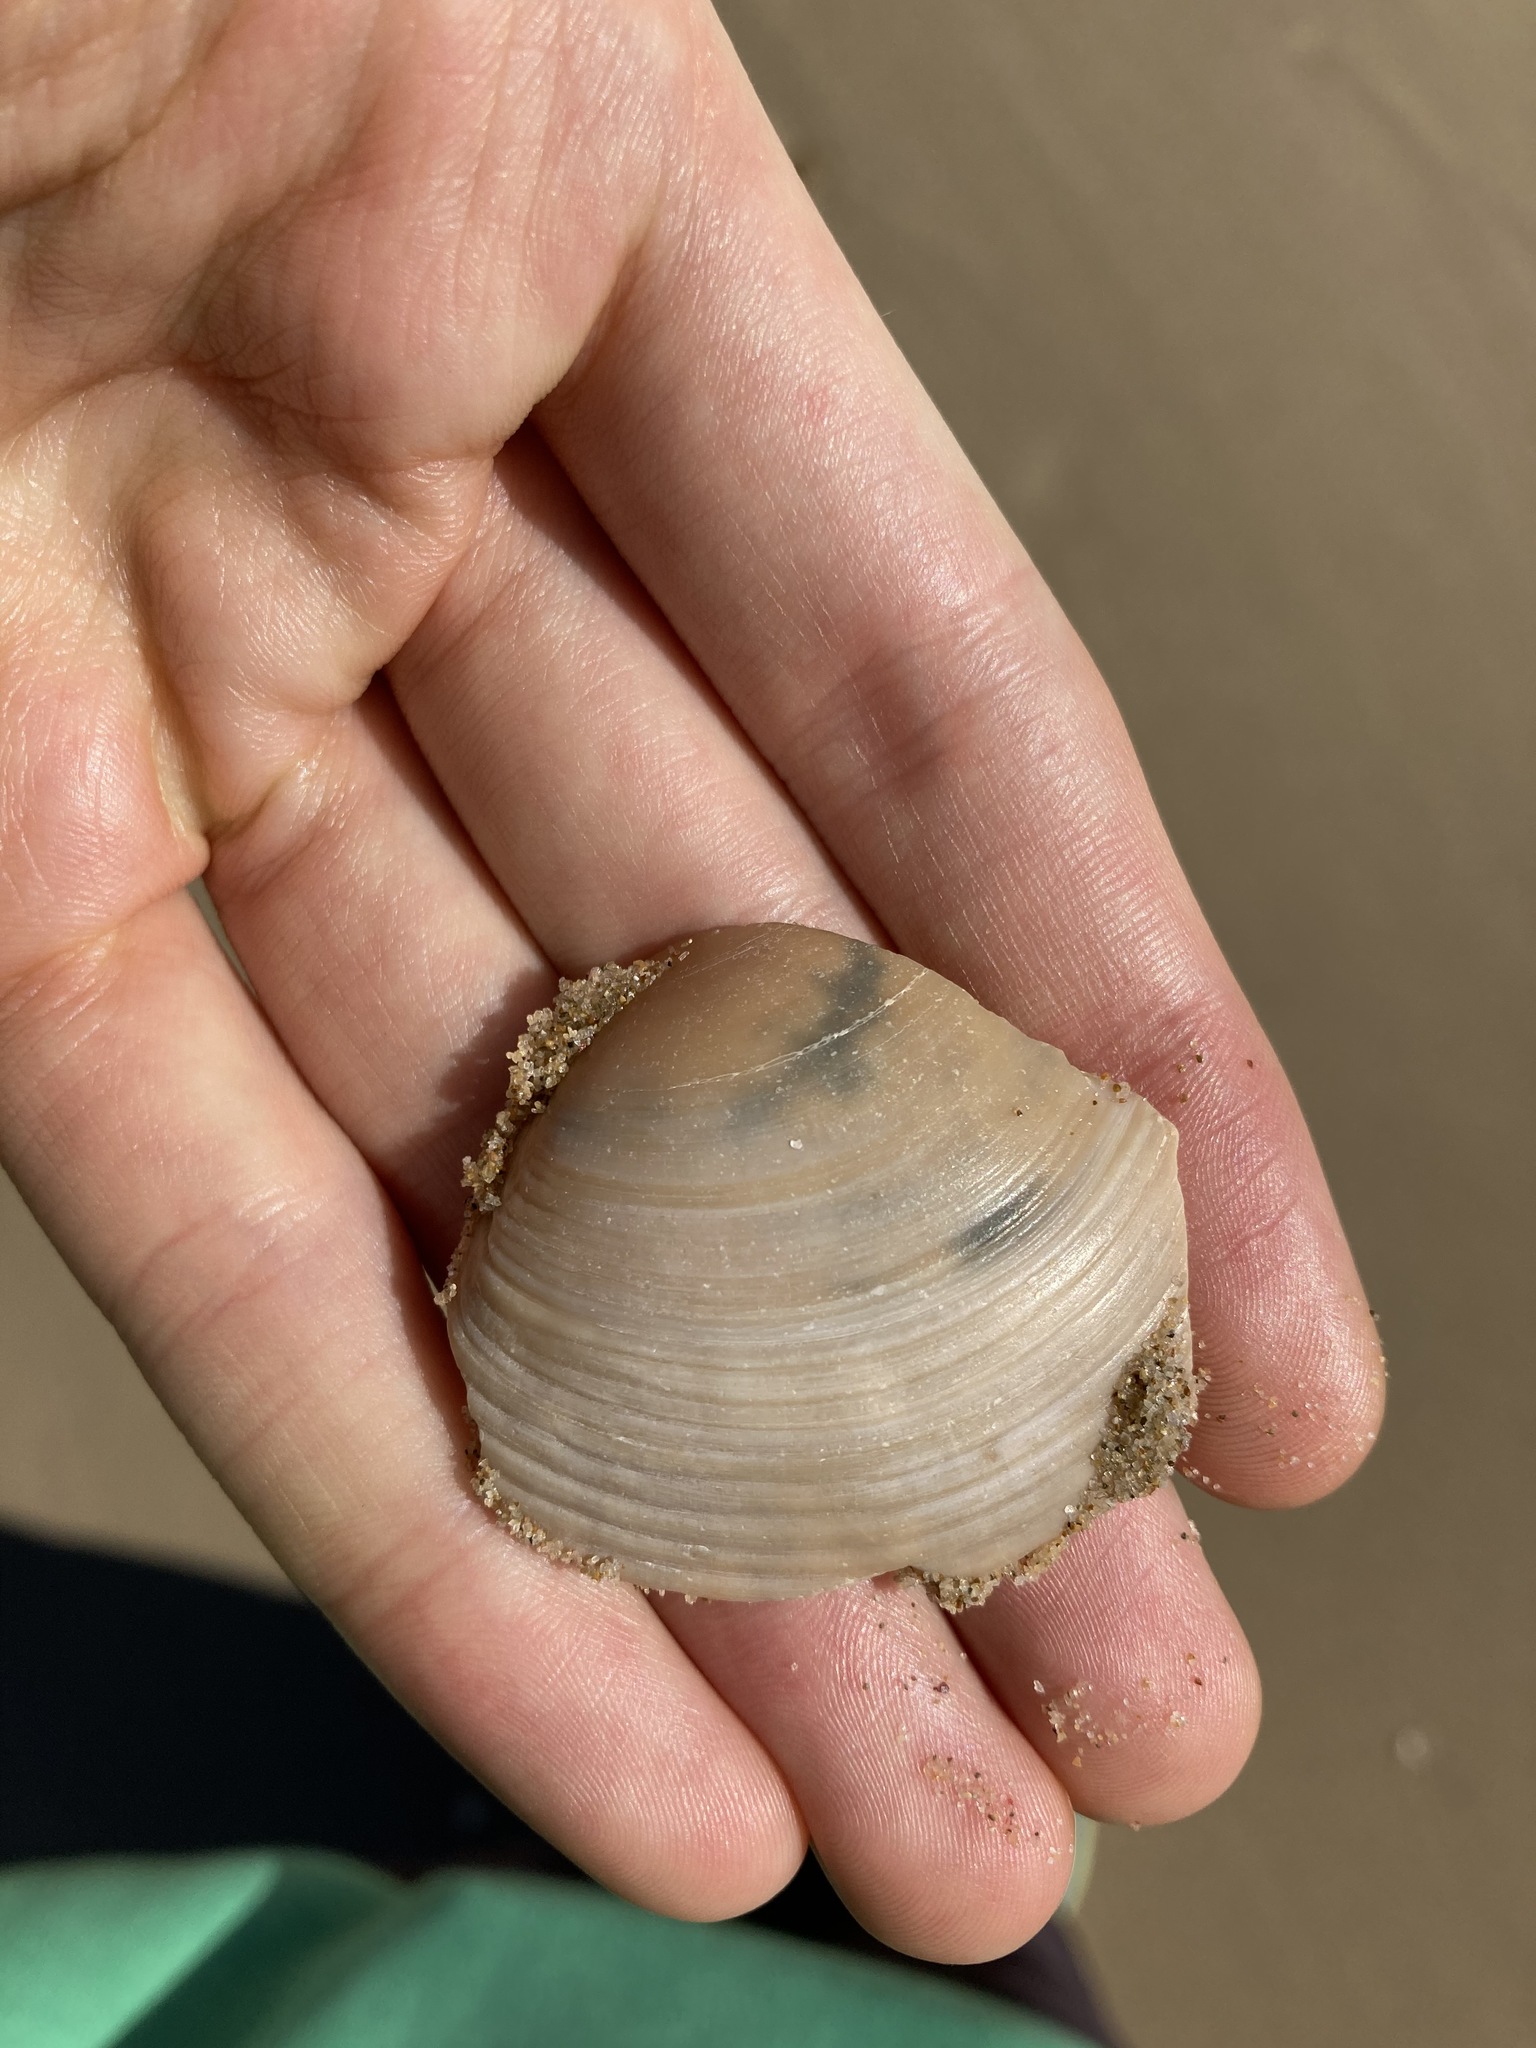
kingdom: Animalia
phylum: Mollusca
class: Bivalvia
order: Venerida
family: Mactridae
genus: Austromactra
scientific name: Austromactra rufescens
